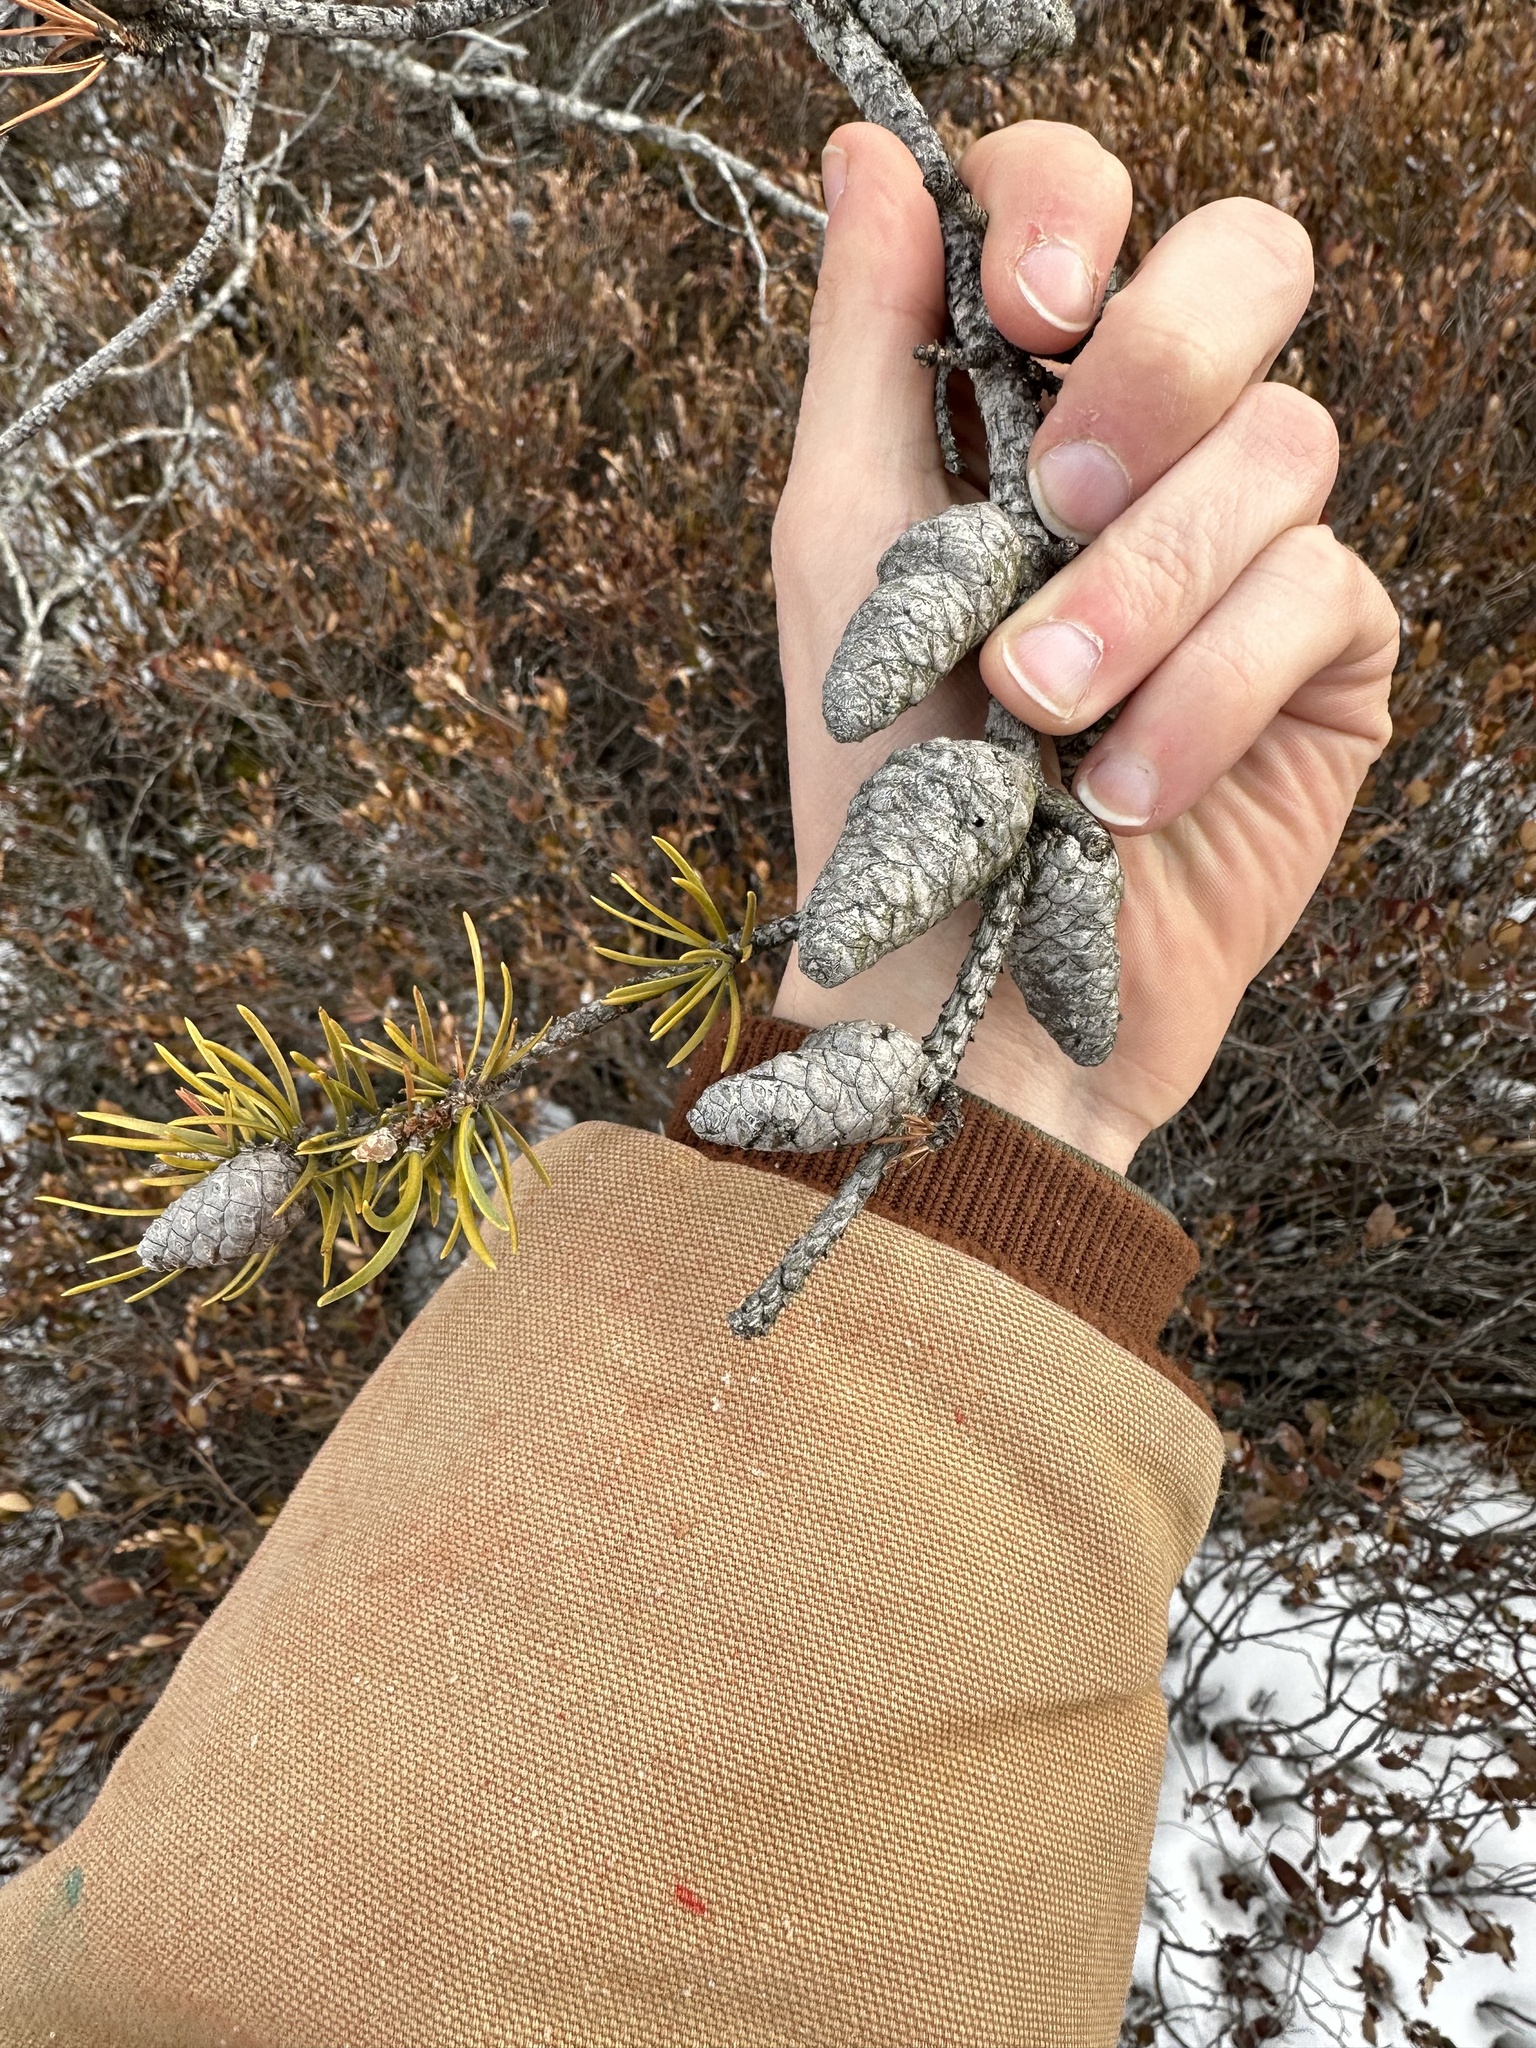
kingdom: Plantae
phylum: Tracheophyta
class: Pinopsida
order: Pinales
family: Pinaceae
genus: Pinus
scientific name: Pinus banksiana
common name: Jack pine
